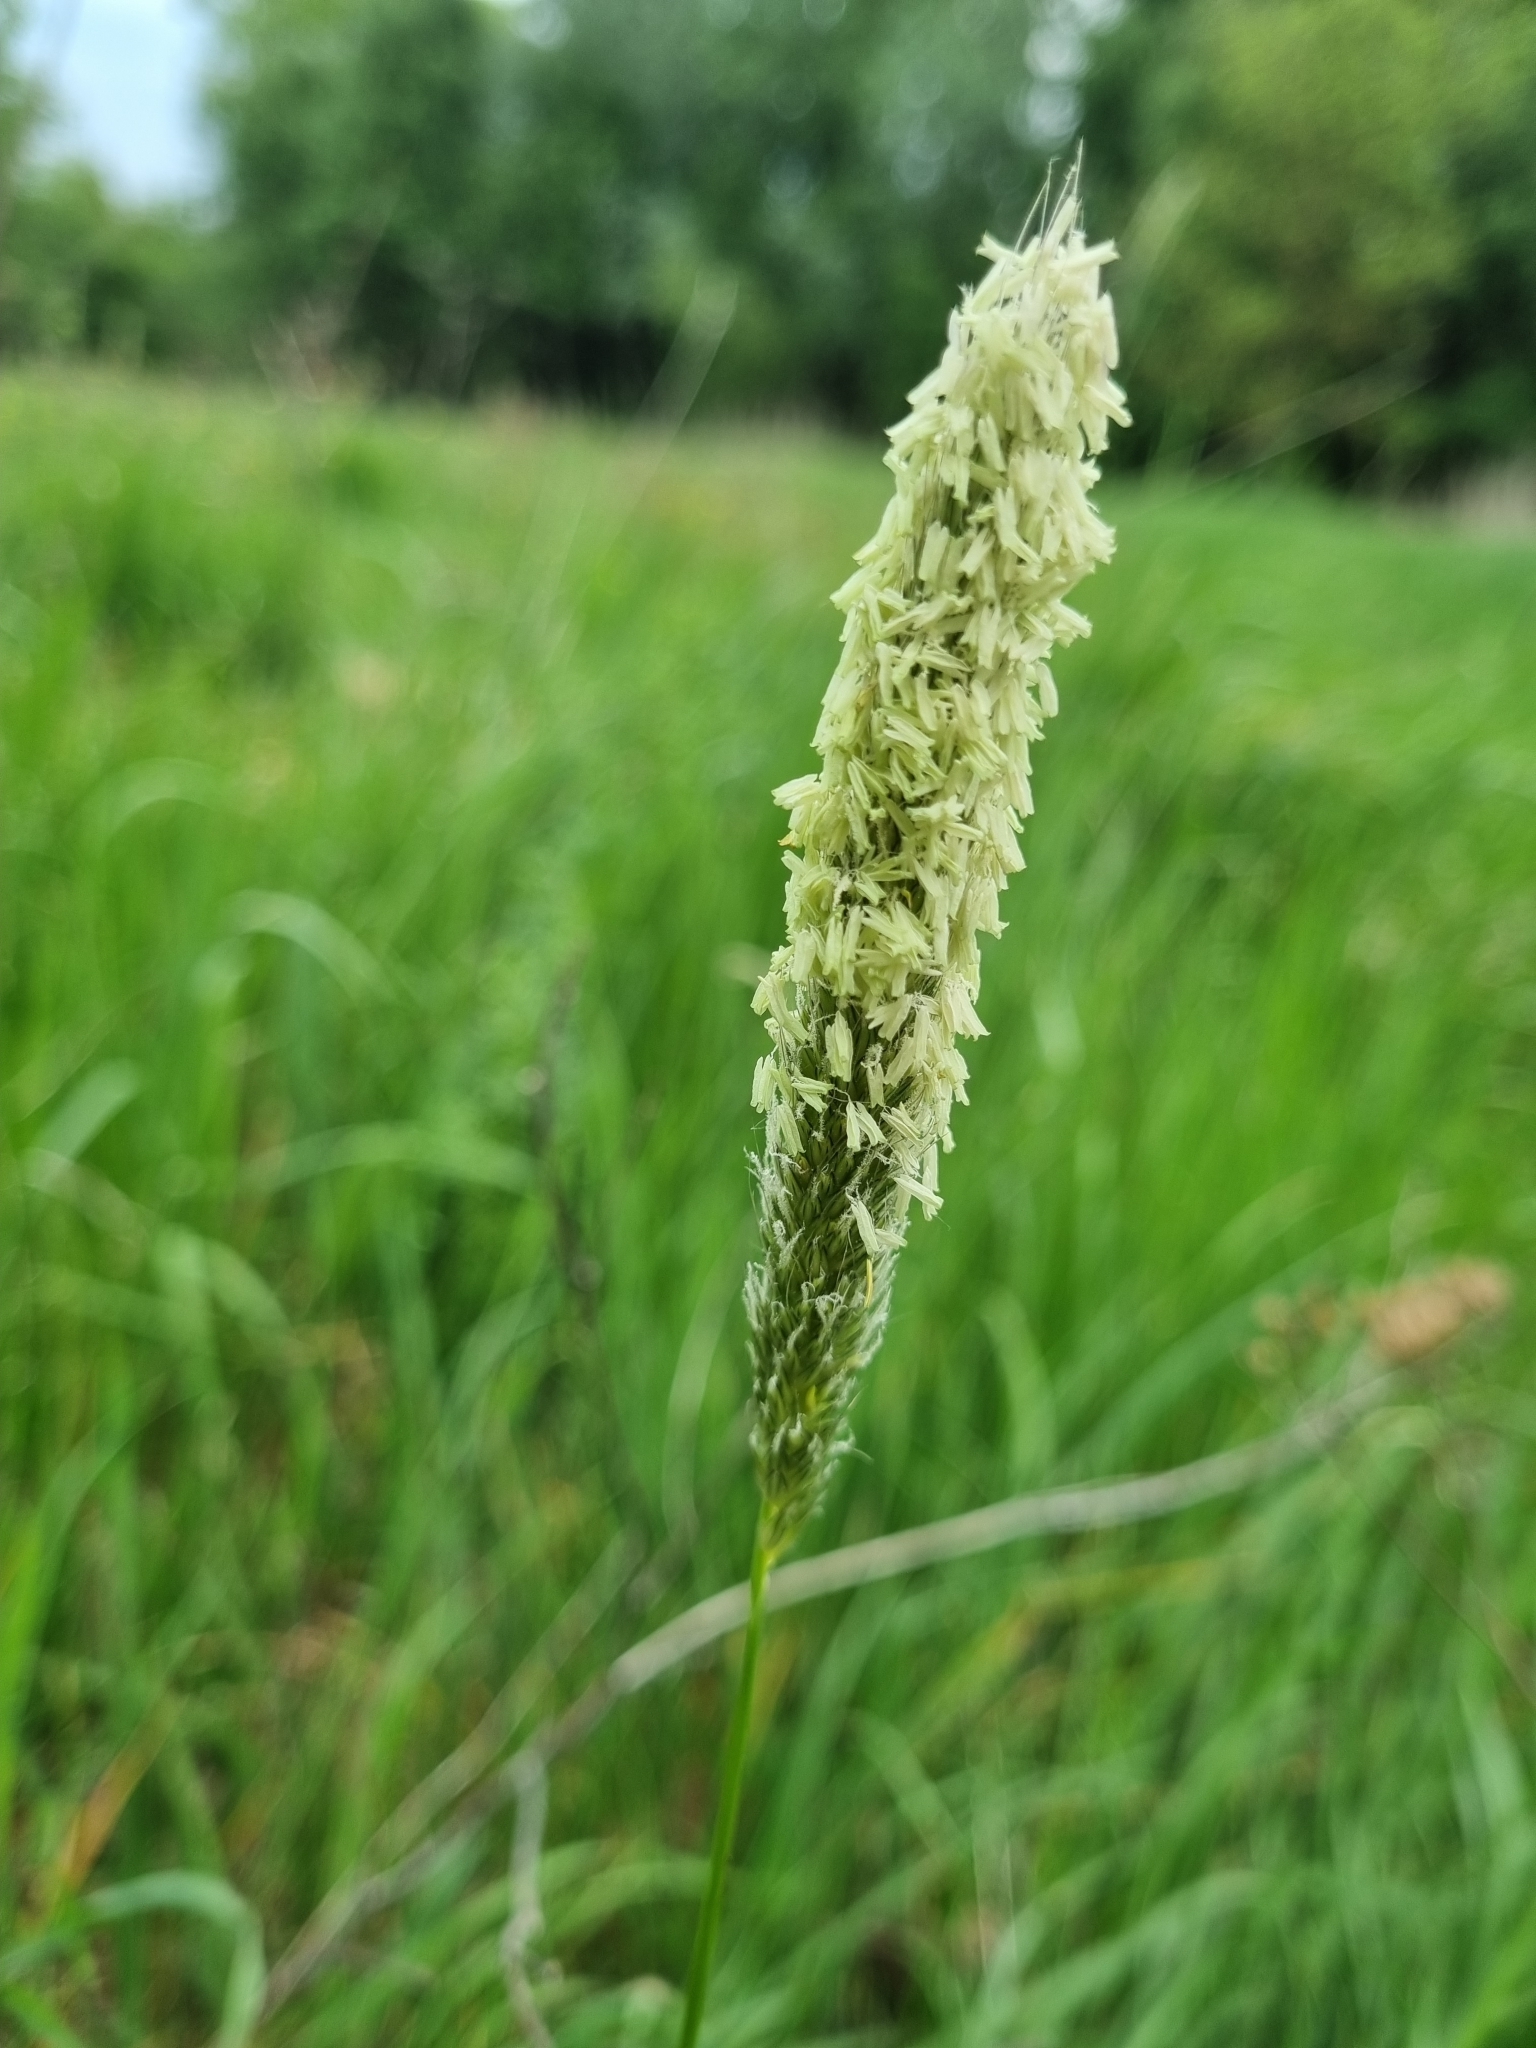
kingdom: Plantae
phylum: Tracheophyta
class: Liliopsida
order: Poales
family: Poaceae
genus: Alopecurus
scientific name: Alopecurus pratensis
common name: Meadow foxtail
